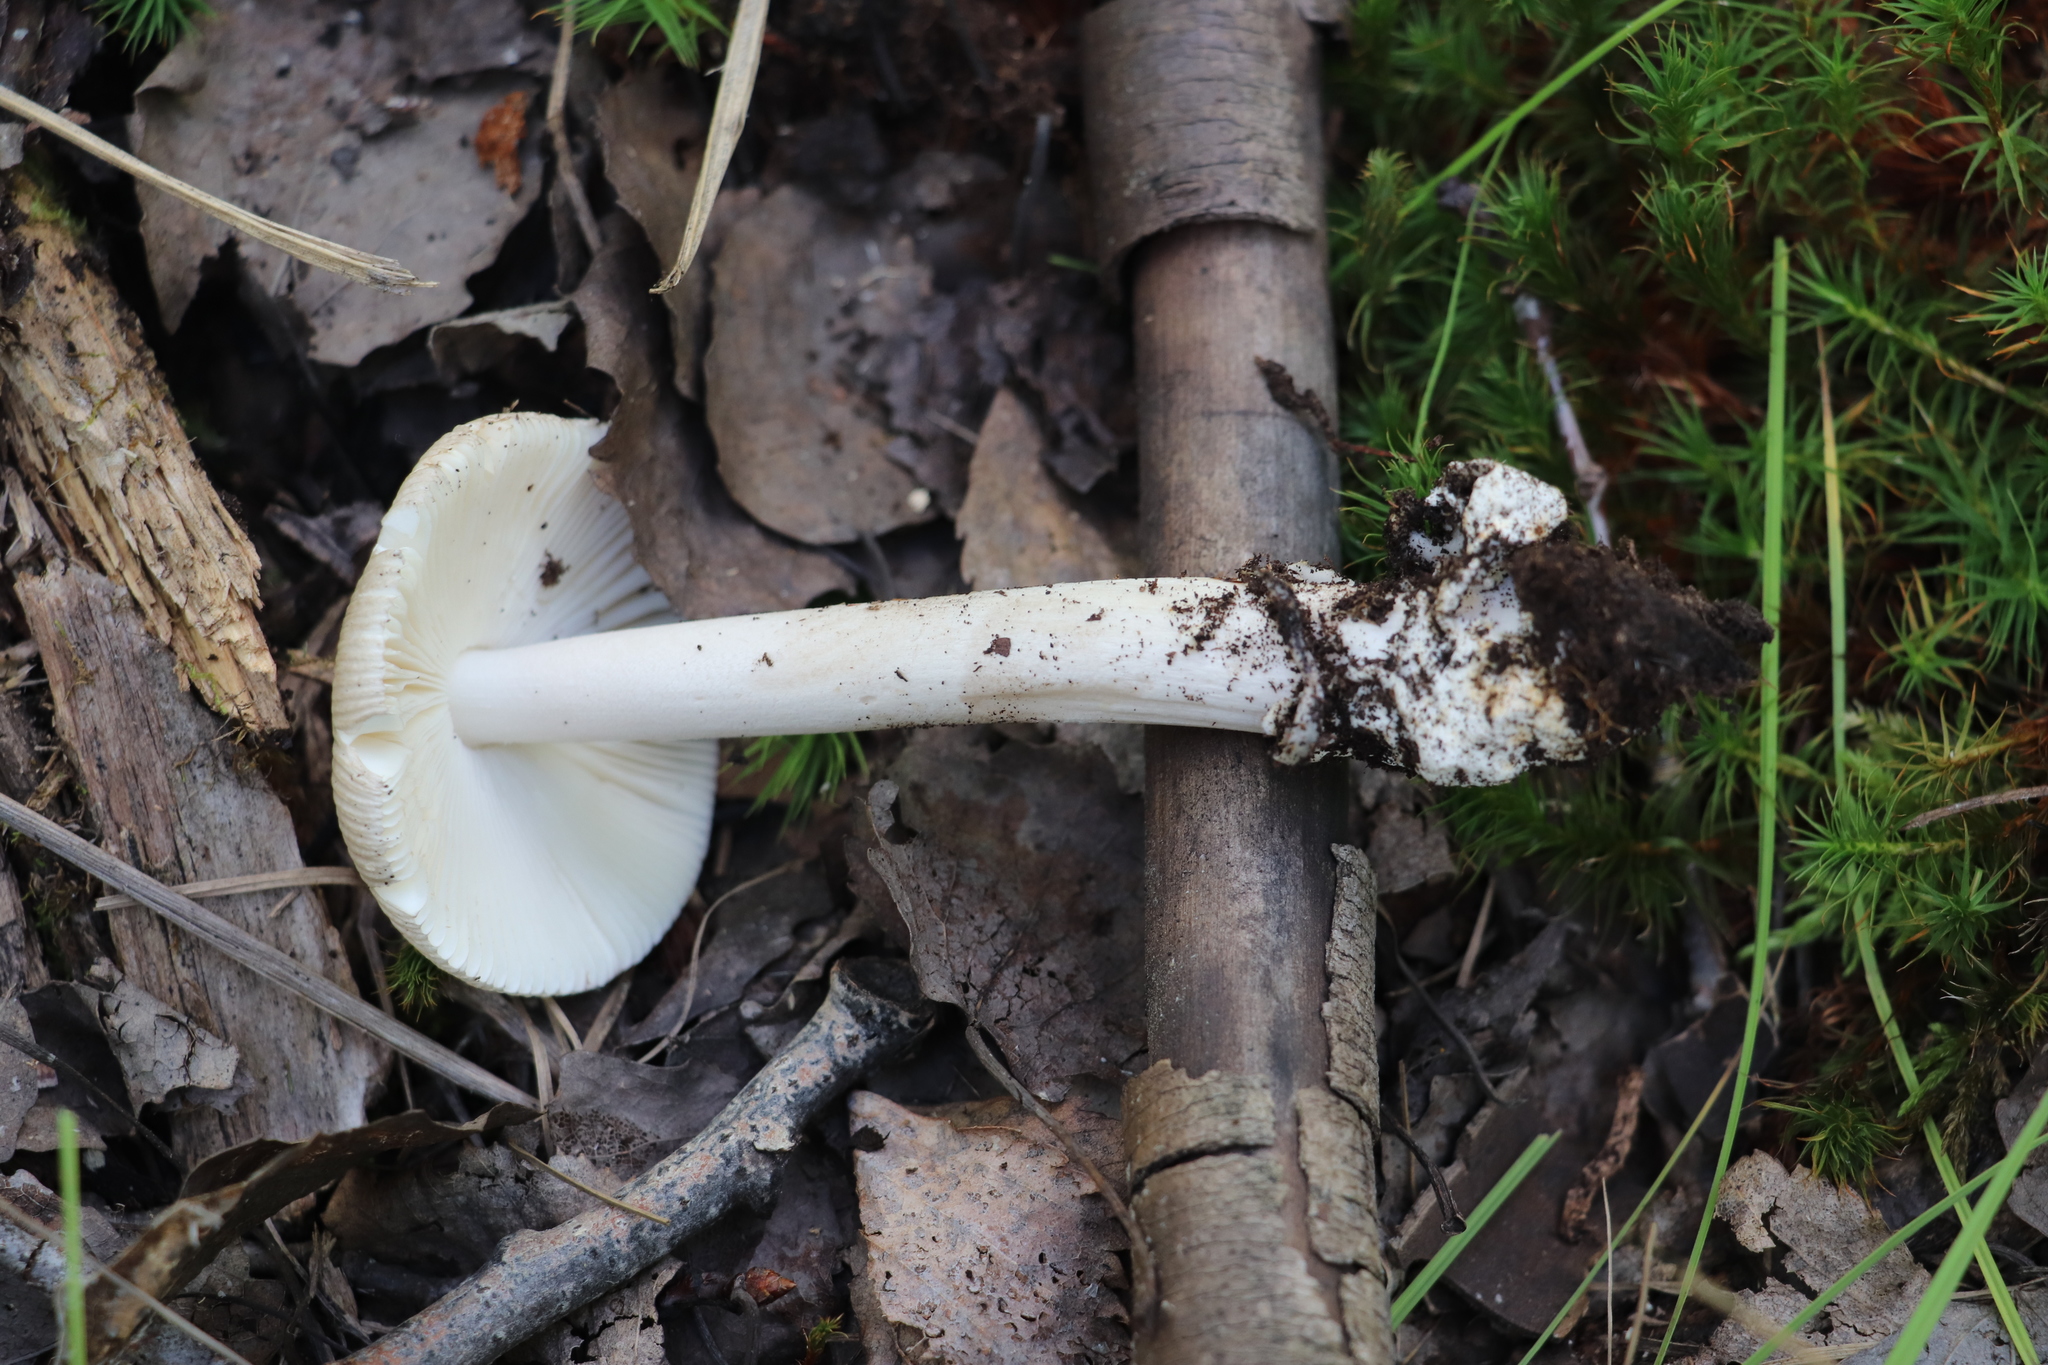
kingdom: Fungi
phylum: Basidiomycota
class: Agaricomycetes
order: Agaricales
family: Amanitaceae
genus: Amanita
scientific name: Amanita vaginata
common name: Grisette
